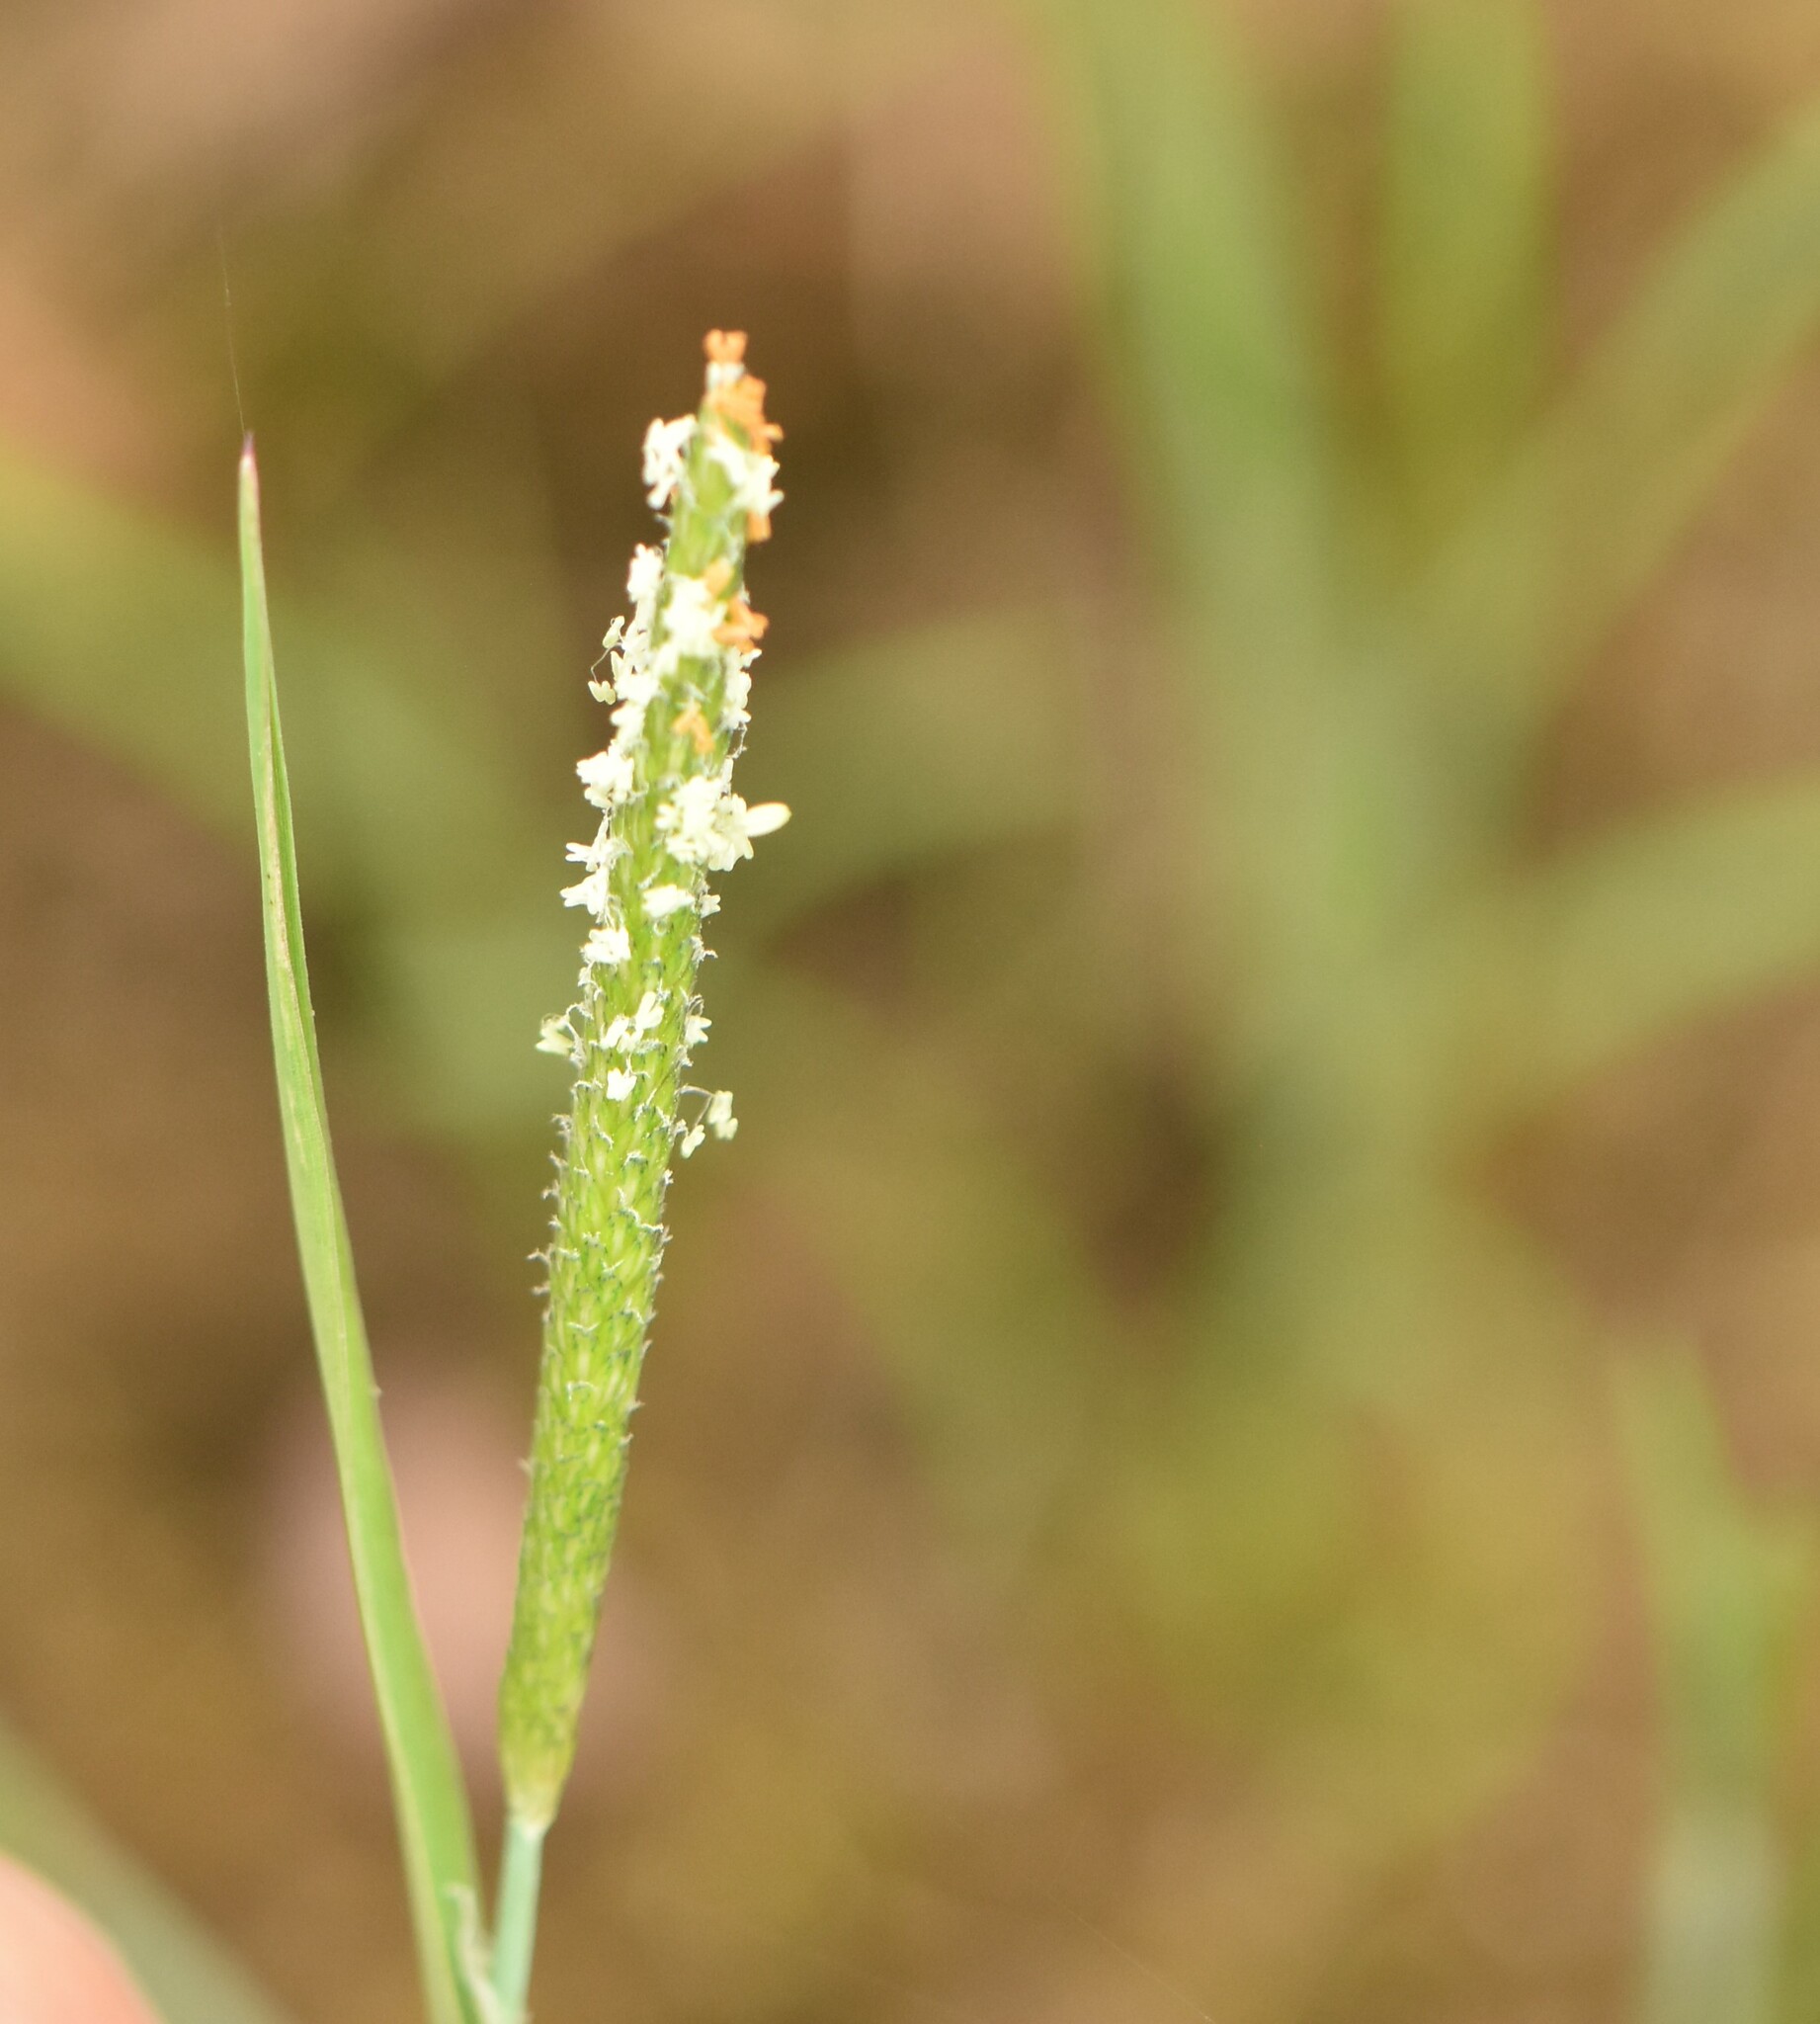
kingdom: Plantae
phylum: Tracheophyta
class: Liliopsida
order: Poales
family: Poaceae
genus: Alopecurus
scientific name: Alopecurus aequalis
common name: Orange foxtail
